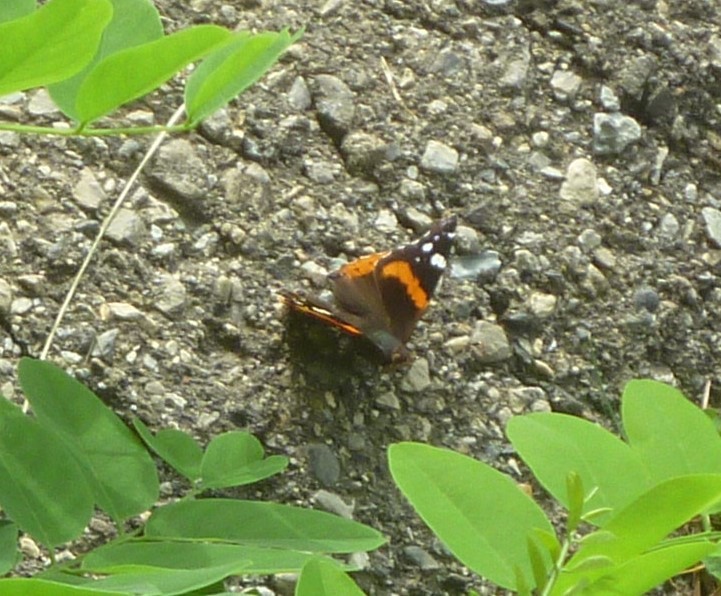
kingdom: Animalia
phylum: Arthropoda
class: Insecta
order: Lepidoptera
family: Nymphalidae
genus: Vanessa
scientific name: Vanessa atalanta
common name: Red admiral
